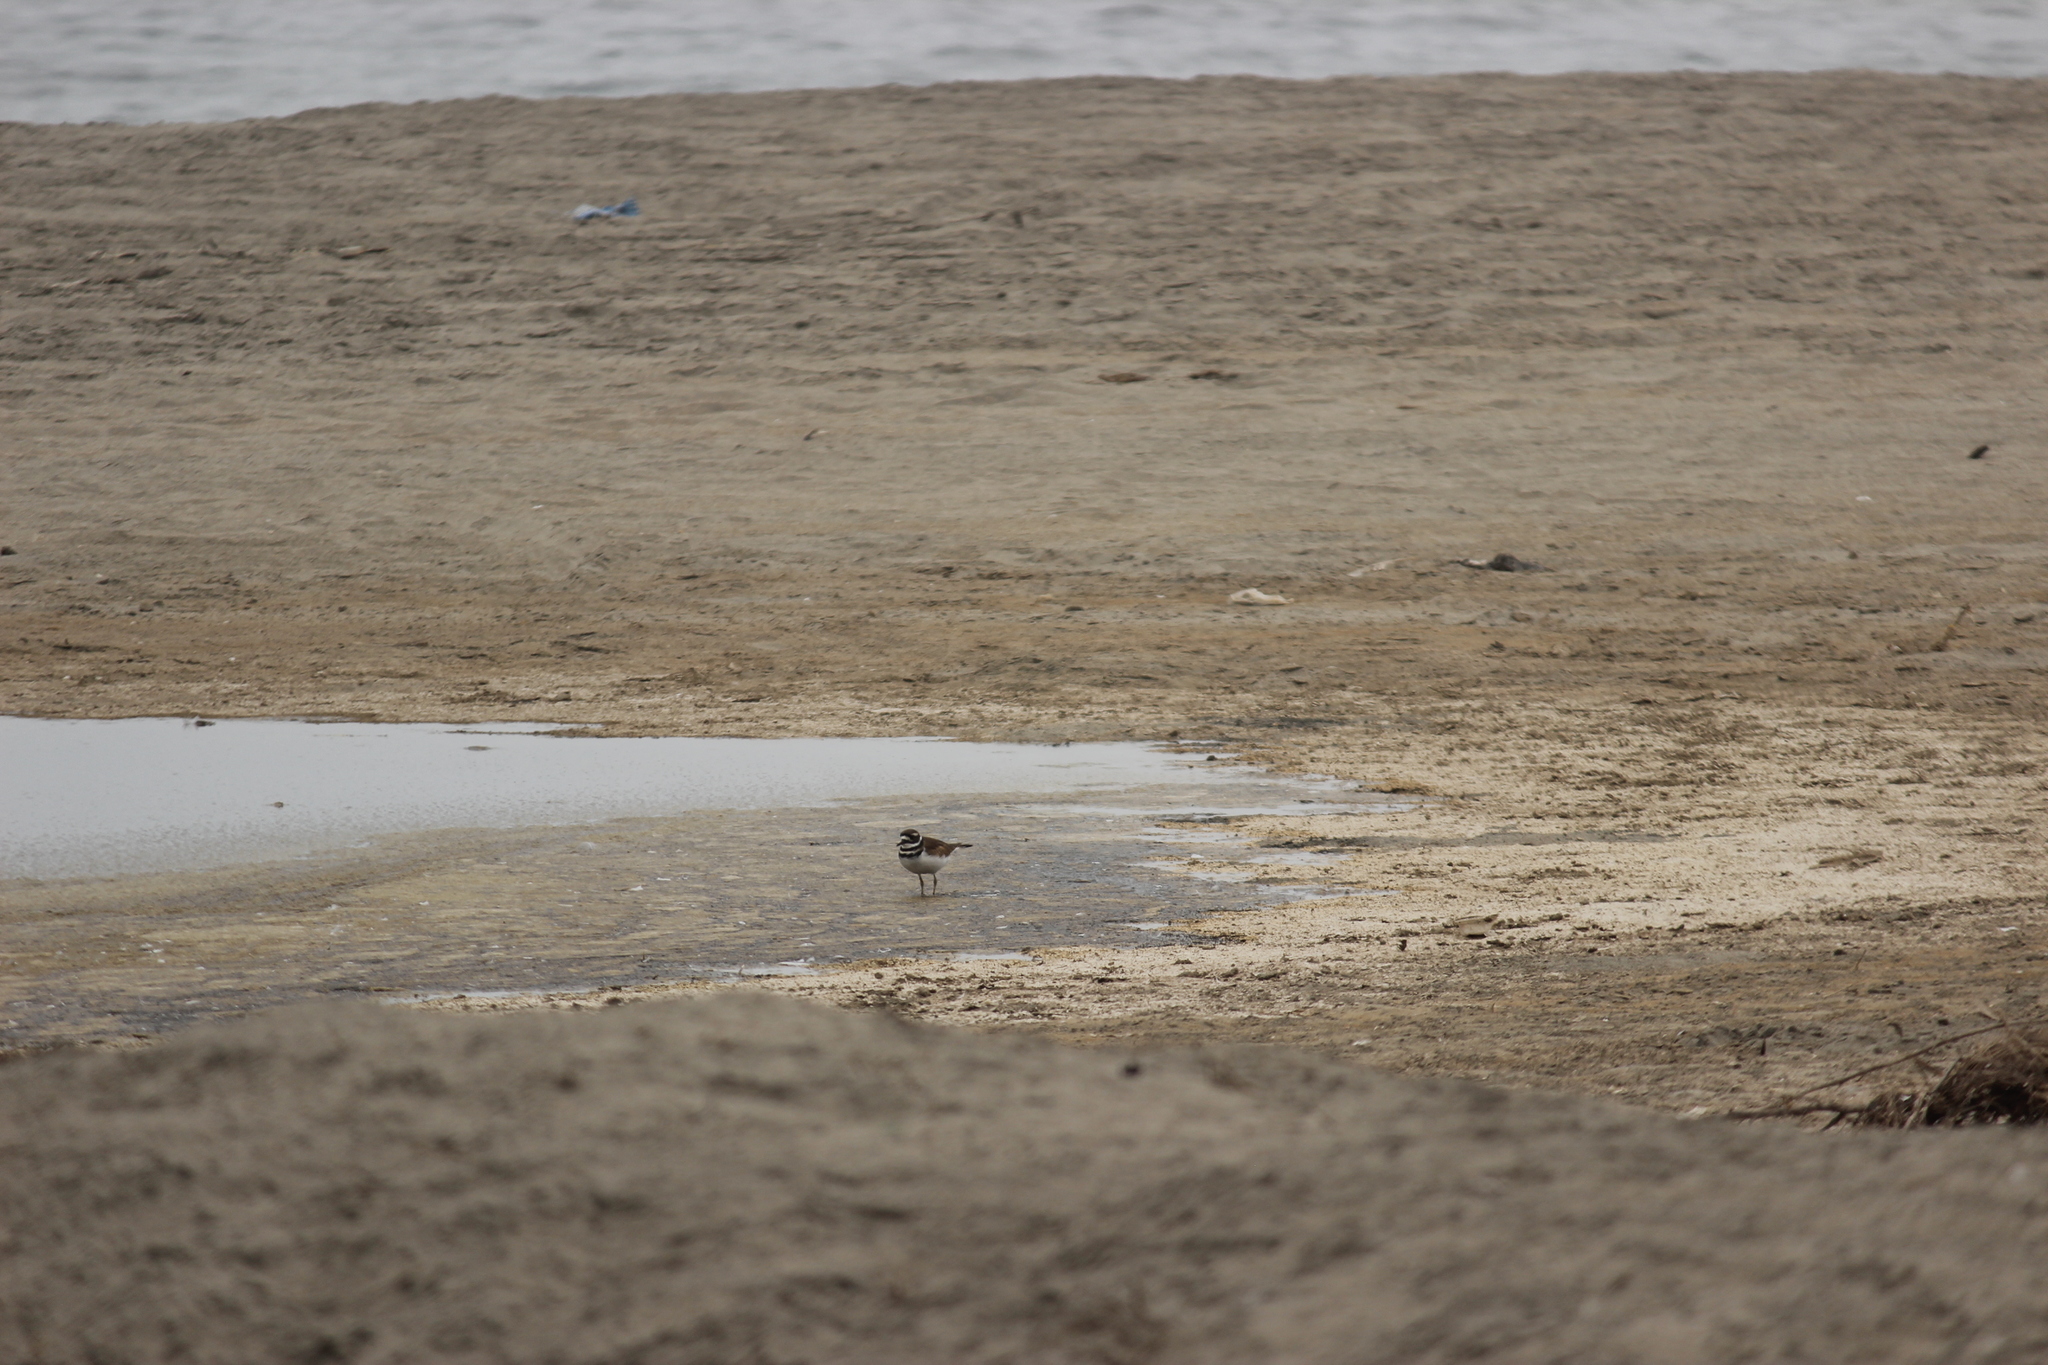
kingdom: Animalia
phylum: Chordata
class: Aves
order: Charadriiformes
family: Charadriidae
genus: Charadrius
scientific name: Charadrius vociferus
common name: Killdeer
